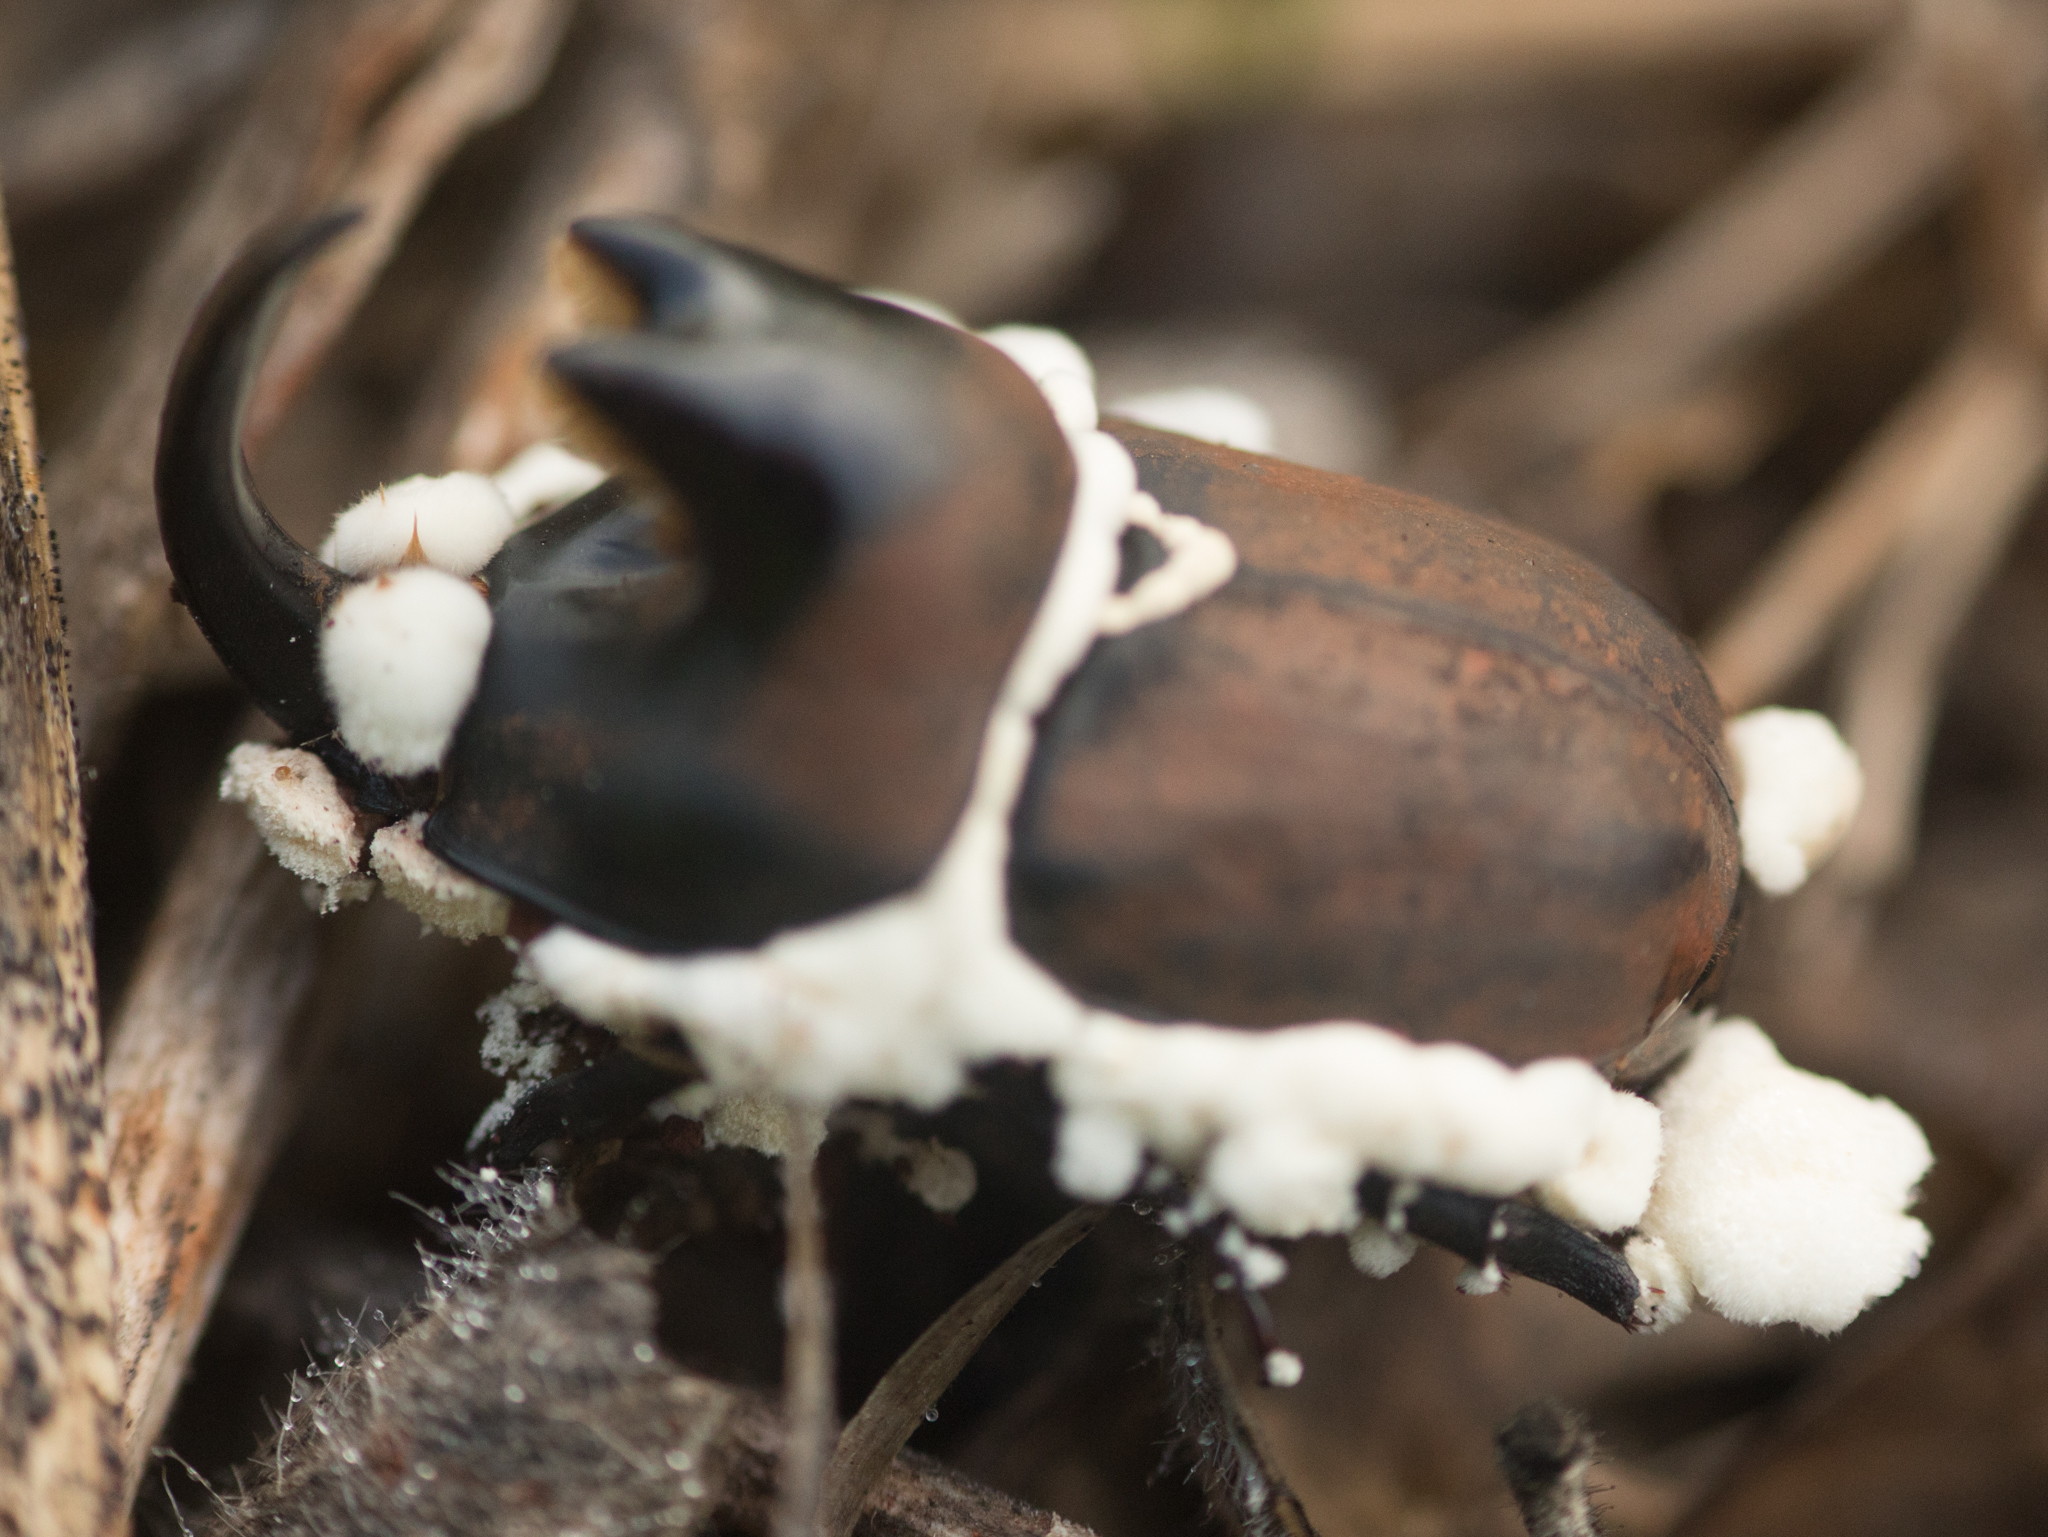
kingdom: Animalia
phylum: Arthropoda
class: Insecta
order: Coleoptera
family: Scarabaeidae
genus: Diloboderus
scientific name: Diloboderus abderus
